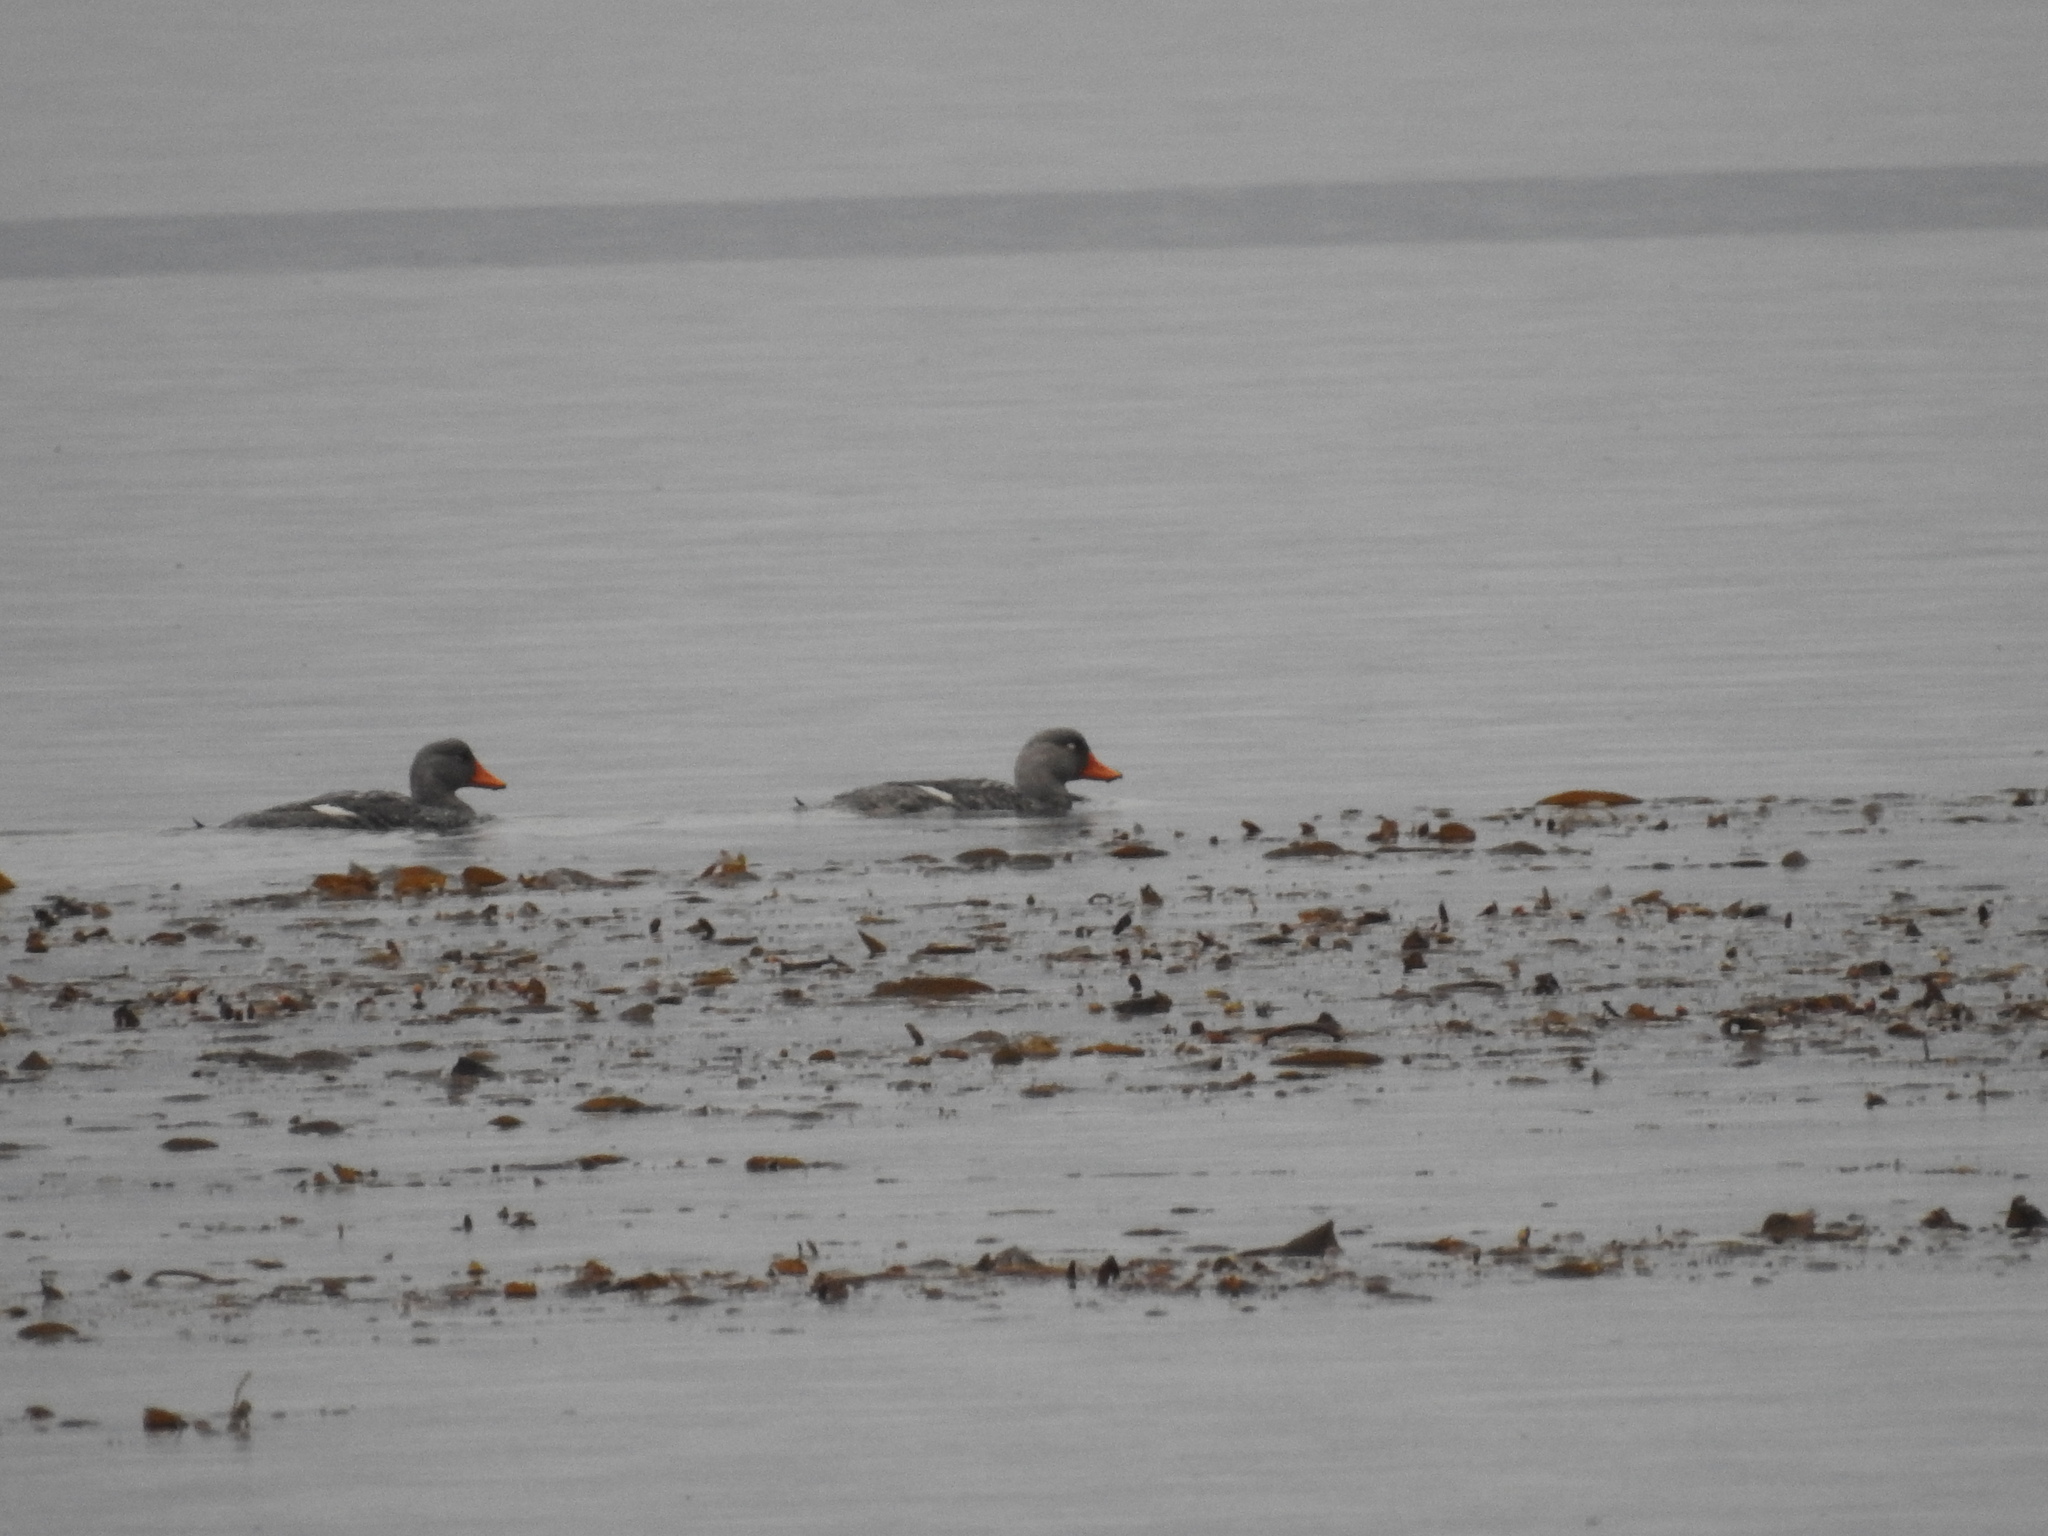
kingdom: Animalia
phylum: Chordata
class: Aves
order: Anseriformes
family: Anatidae
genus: Tachyeres
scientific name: Tachyeres pteneres
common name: Fuegian steamer duck
